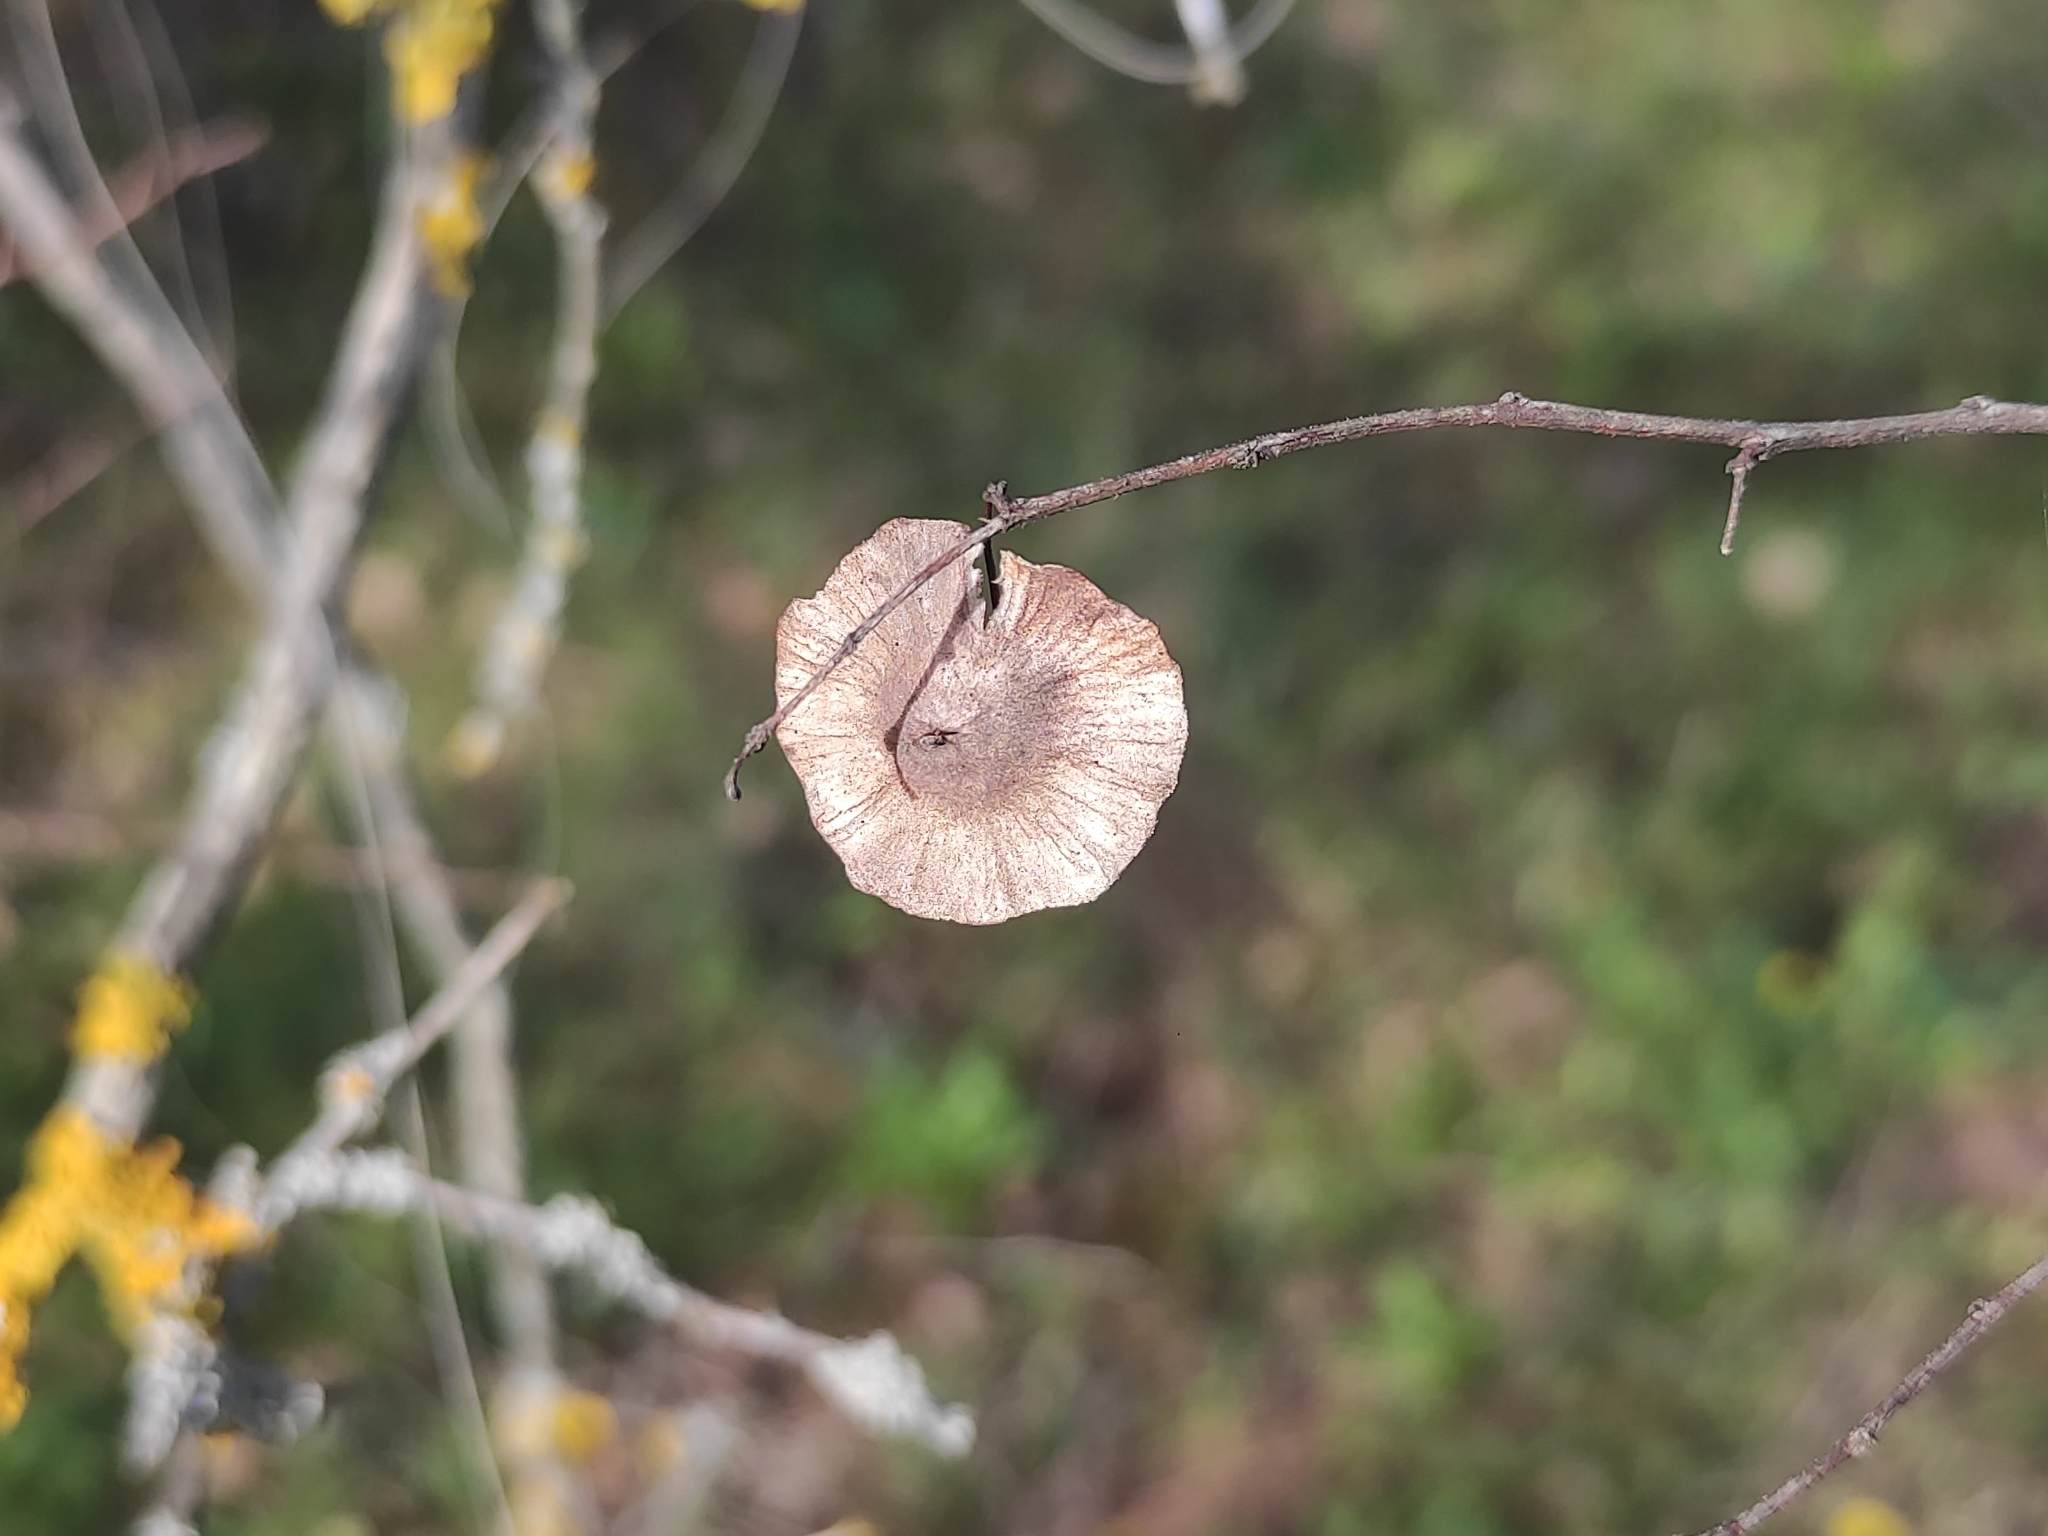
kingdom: Plantae
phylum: Tracheophyta
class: Magnoliopsida
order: Rosales
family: Rhamnaceae
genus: Paliurus
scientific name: Paliurus spina-christi
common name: Jeruselem thorn
